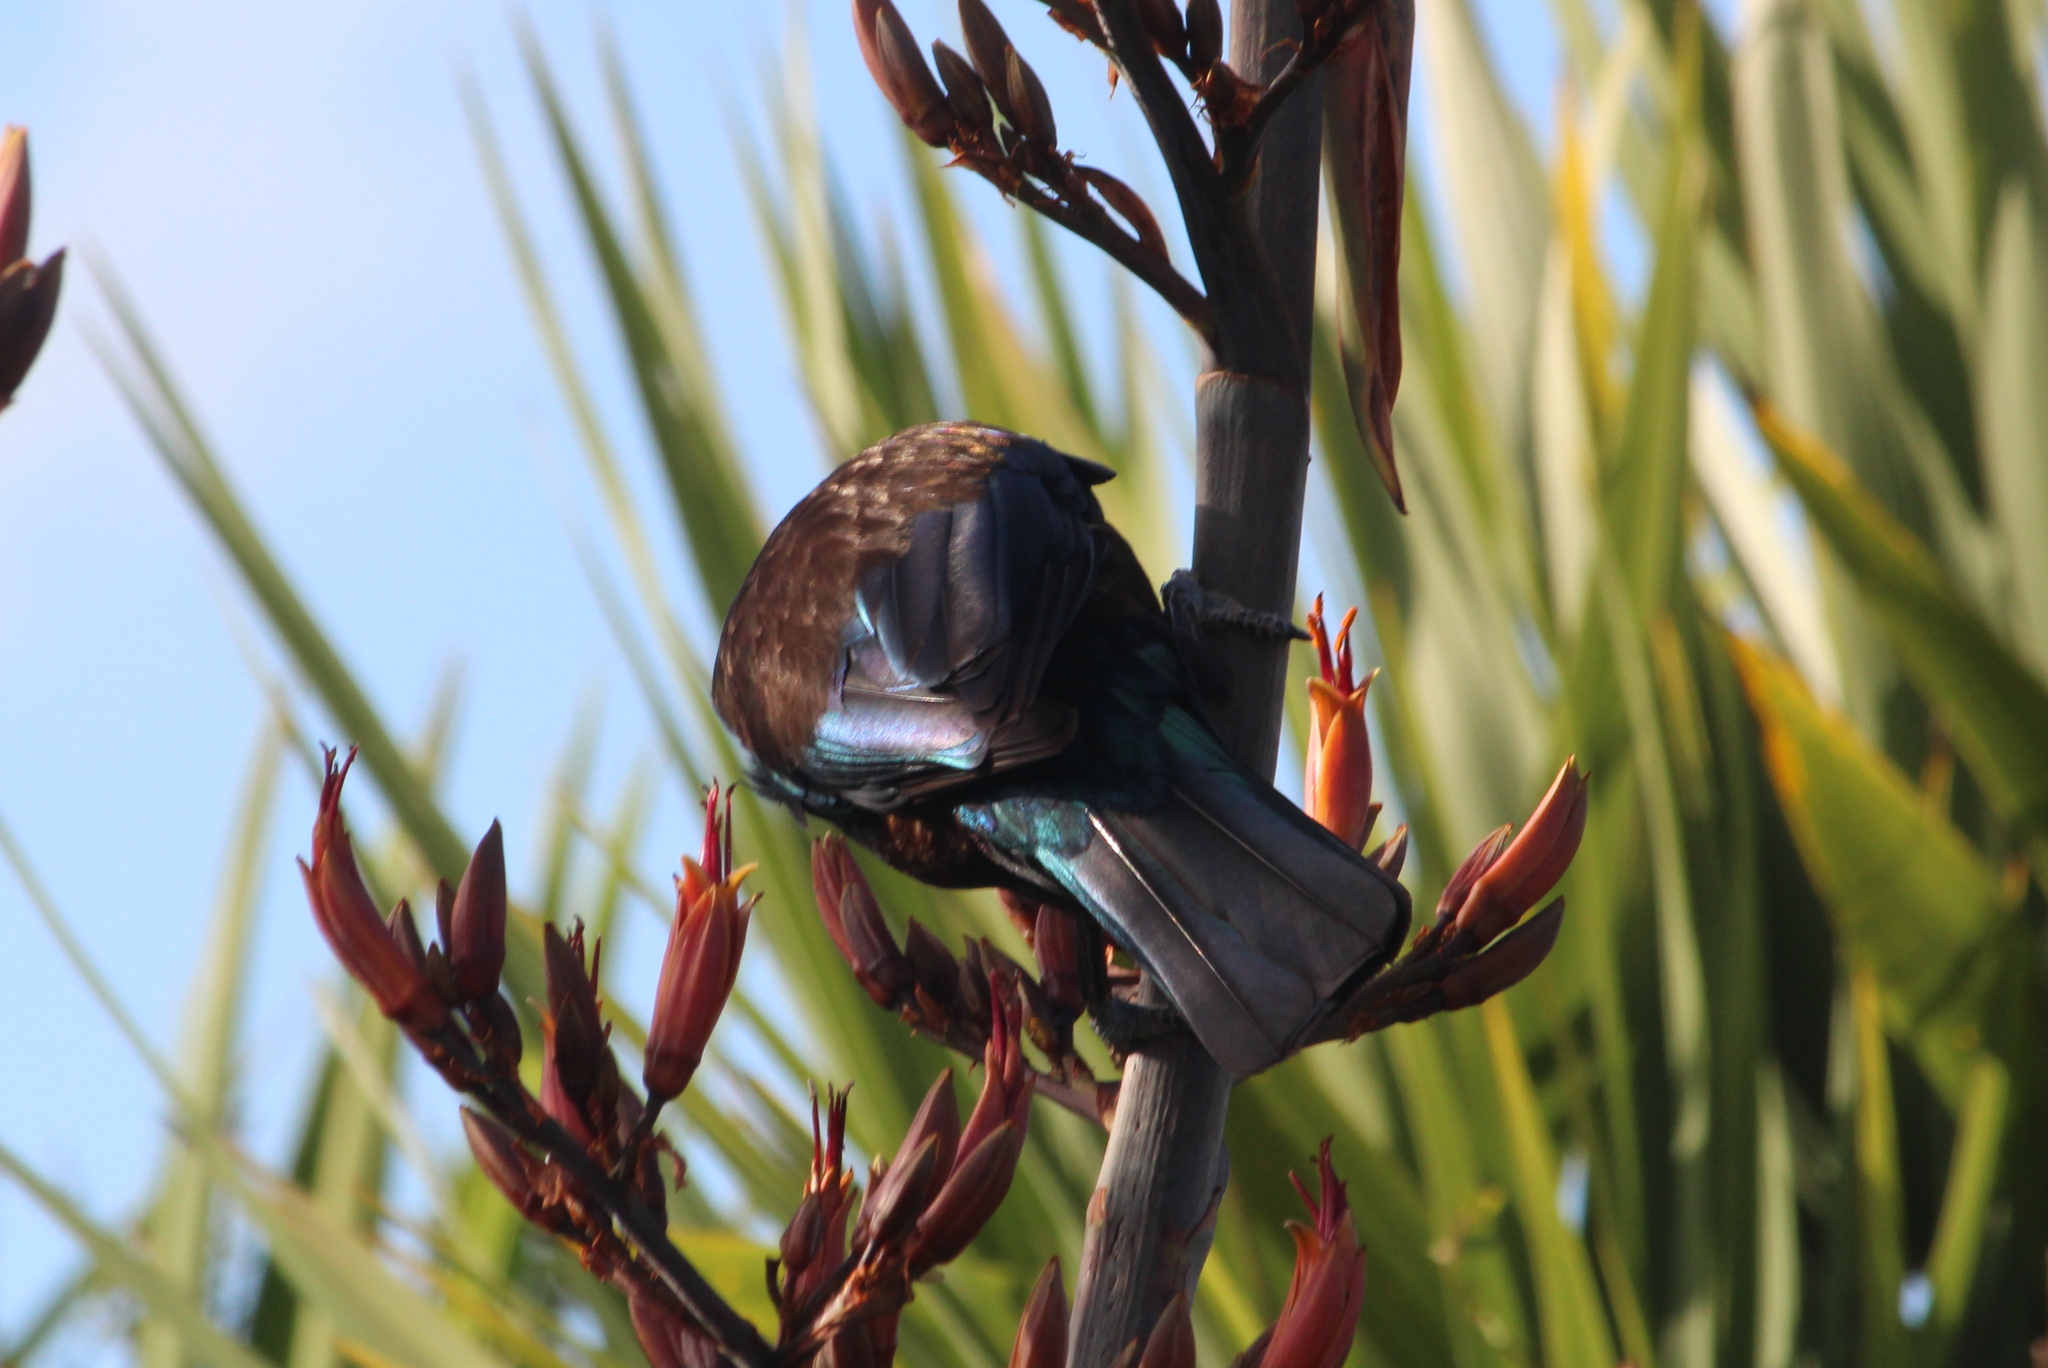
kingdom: Animalia
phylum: Chordata
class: Aves
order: Passeriformes
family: Meliphagidae
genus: Prosthemadera
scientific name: Prosthemadera novaeseelandiae
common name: Tui
